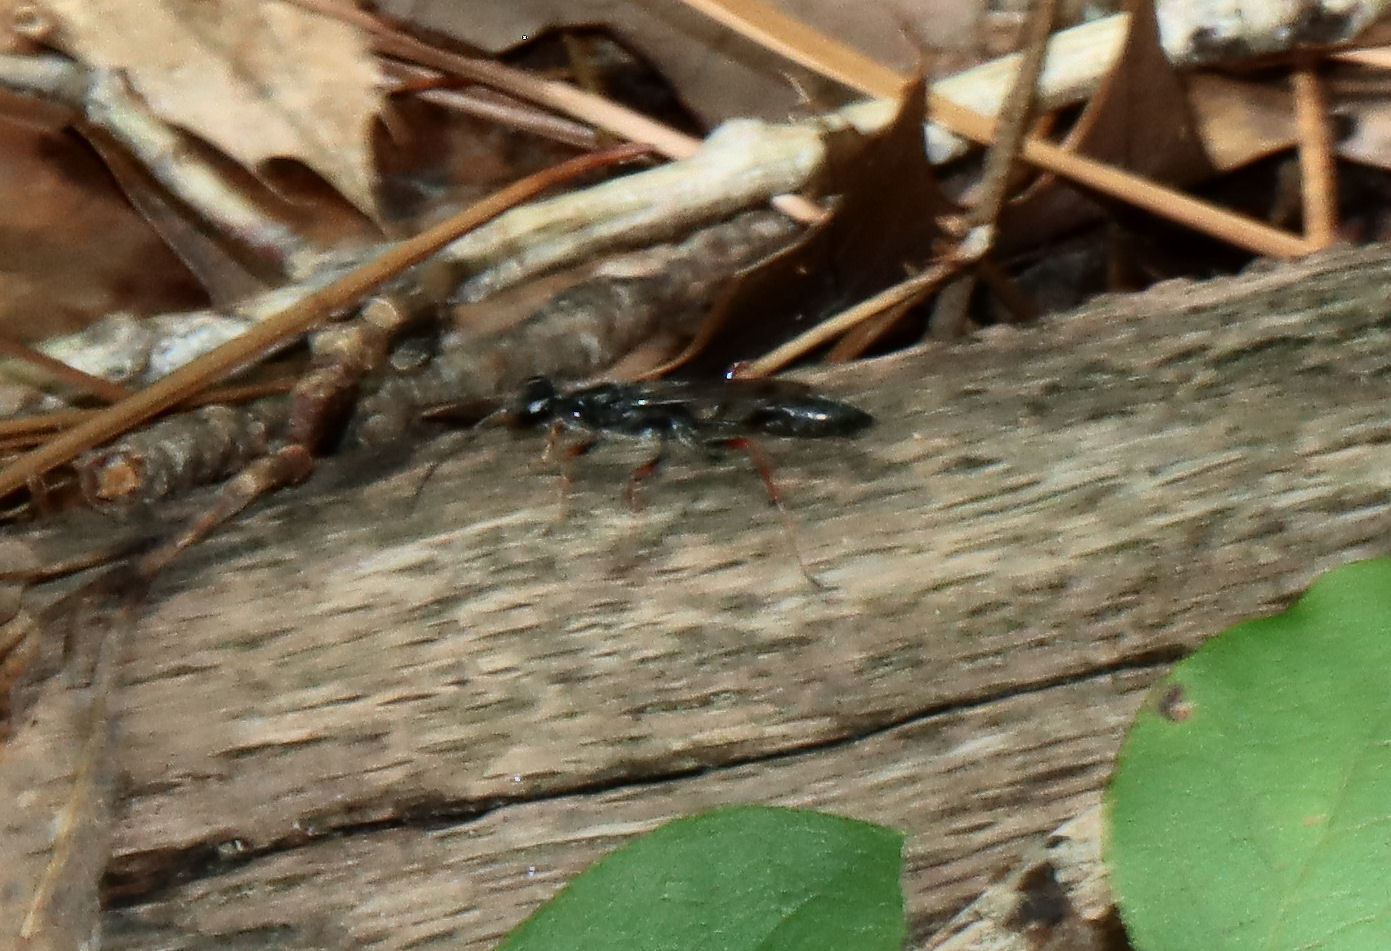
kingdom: Animalia
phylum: Arthropoda
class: Insecta
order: Hymenoptera
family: Sphecidae
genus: Podium
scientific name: Podium rufipes
